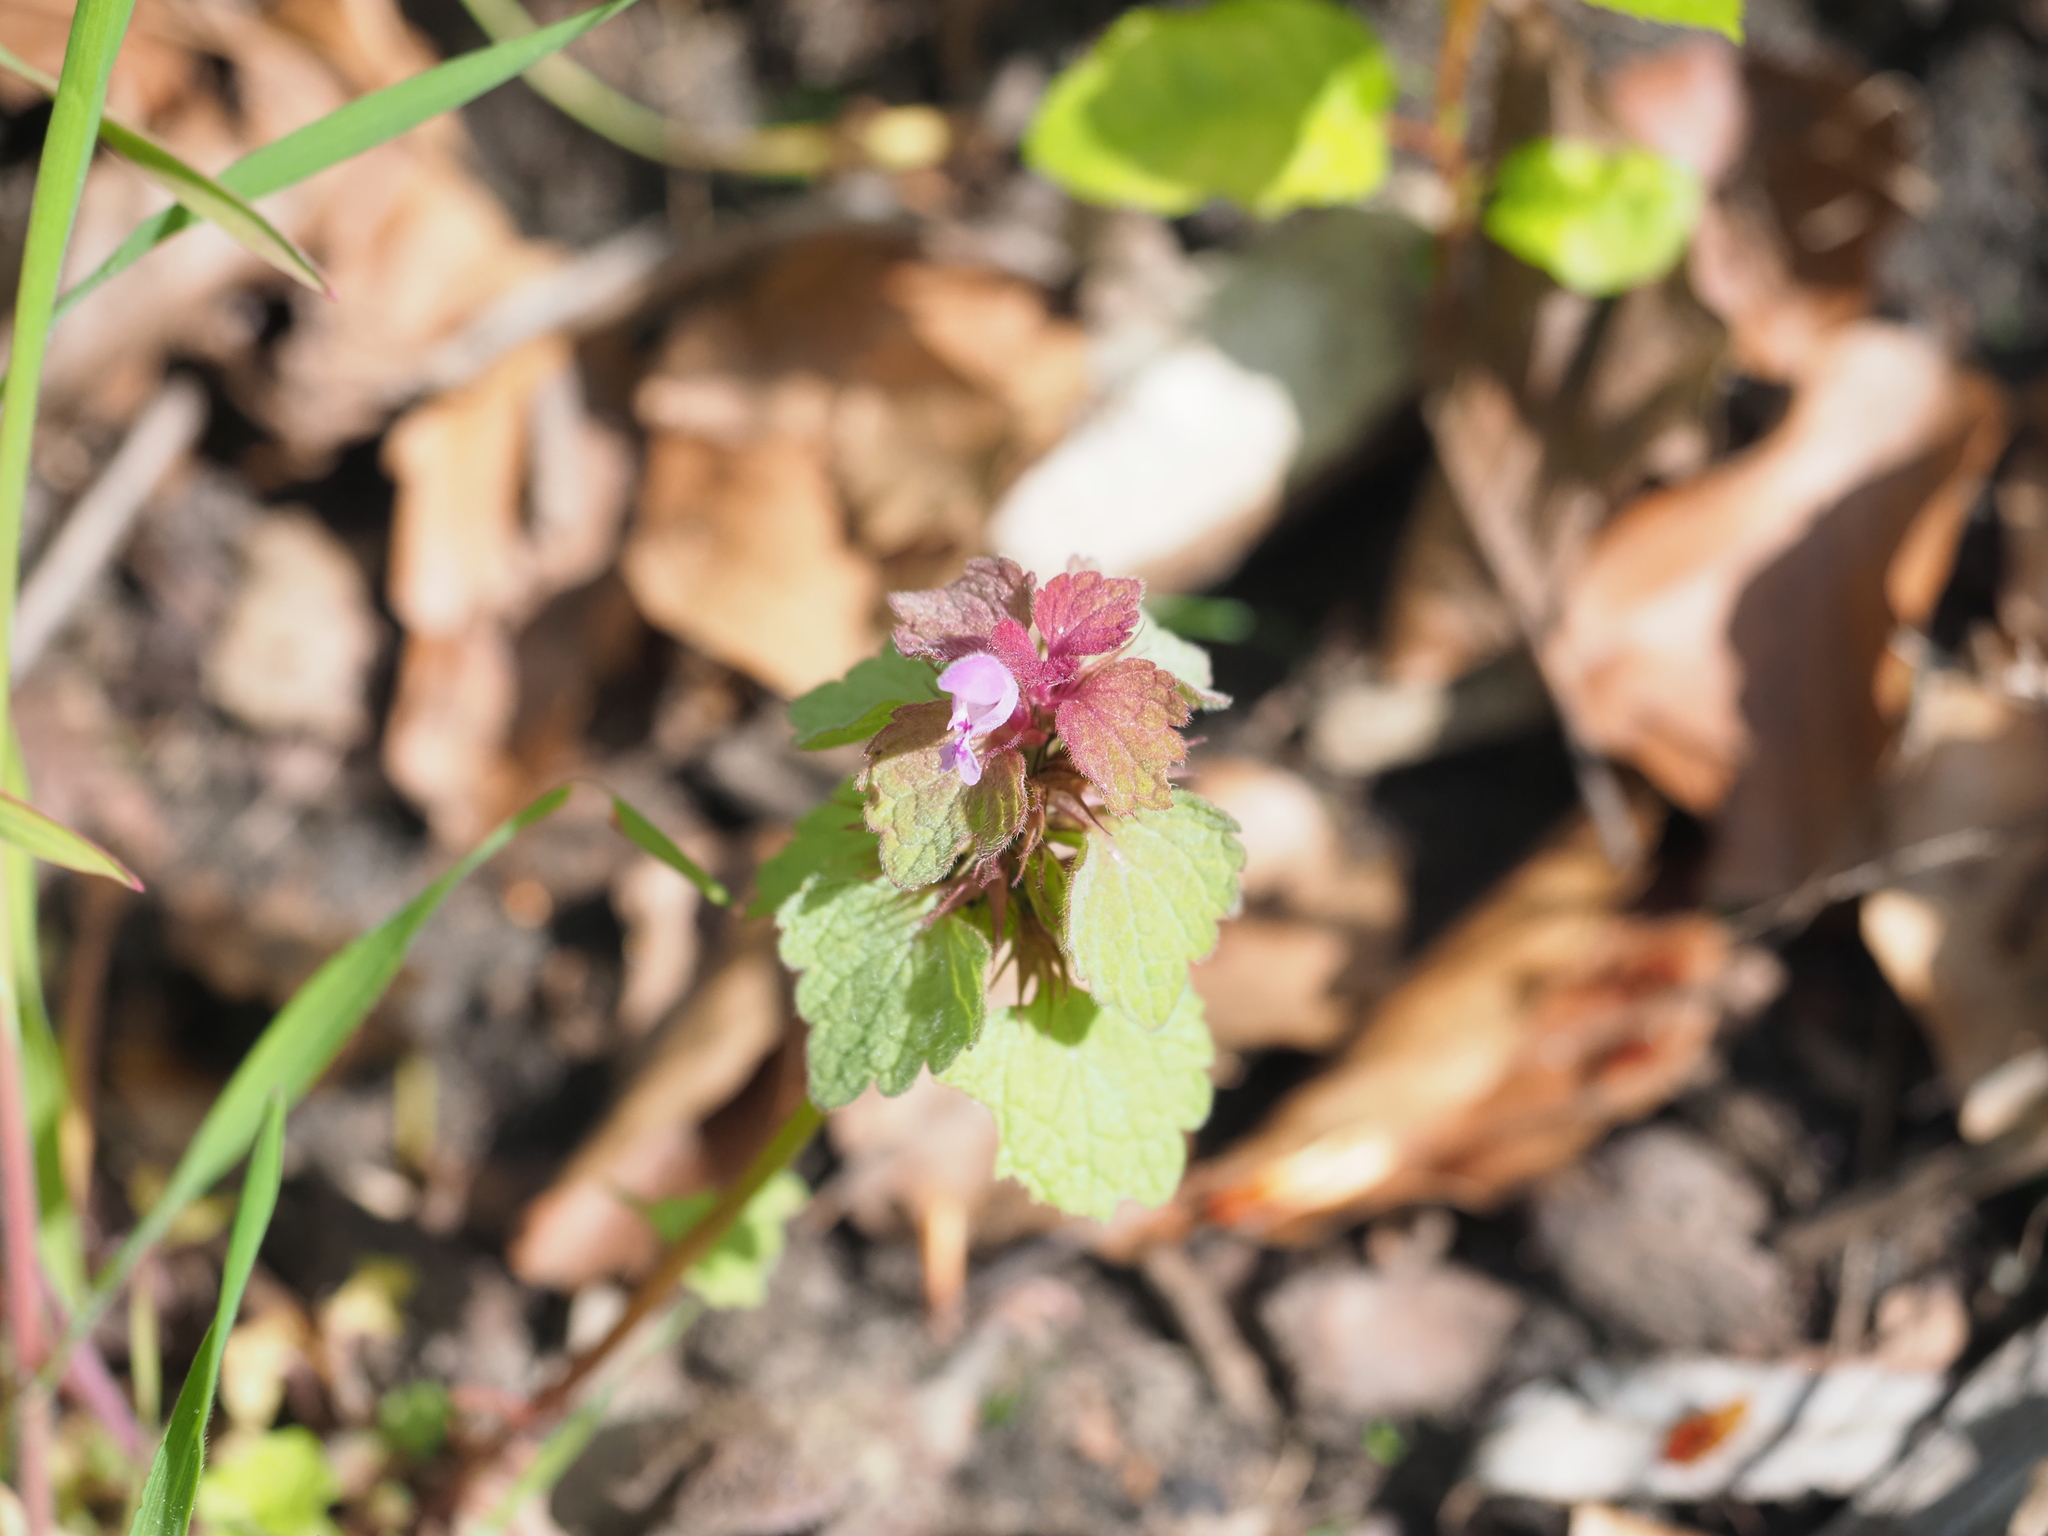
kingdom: Plantae
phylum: Tracheophyta
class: Magnoliopsida
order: Lamiales
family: Lamiaceae
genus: Lamium
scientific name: Lamium purpureum
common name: Red dead-nettle
